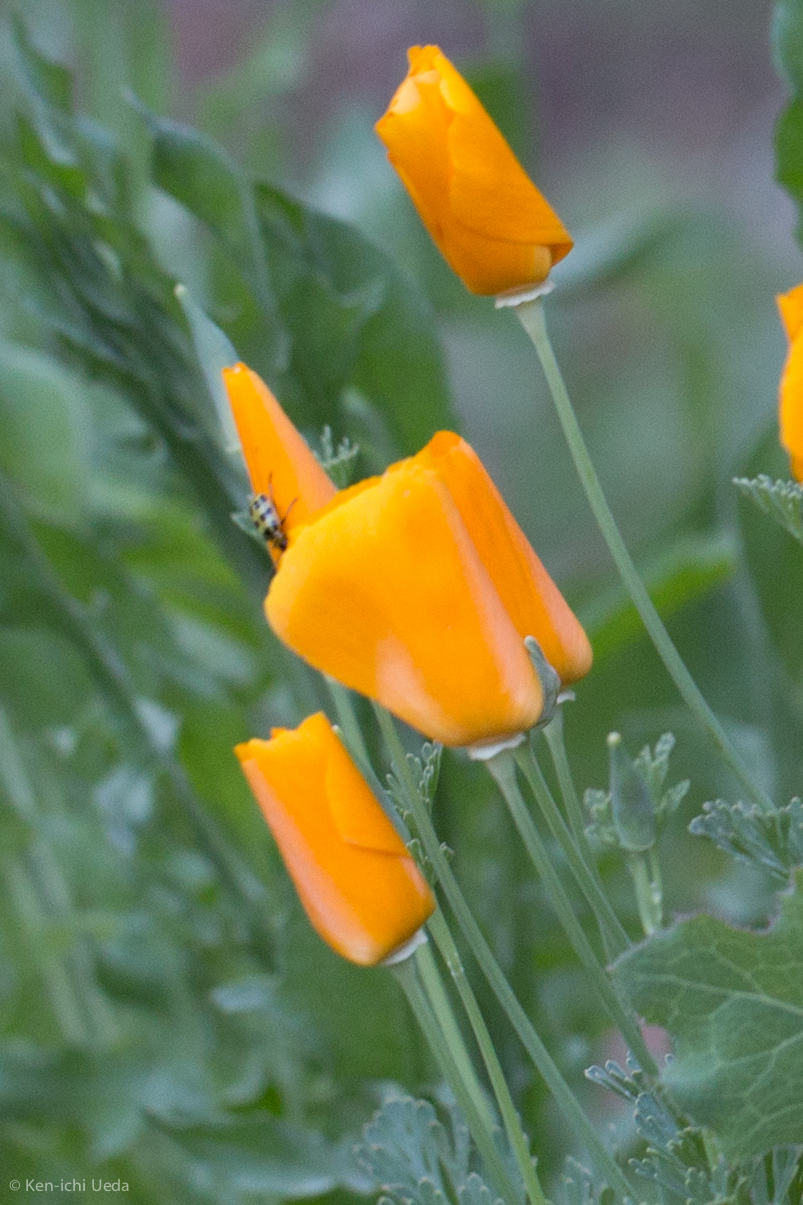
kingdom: Plantae
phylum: Tracheophyta
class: Magnoliopsida
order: Ranunculales
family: Papaveraceae
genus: Eschscholzia
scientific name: Eschscholzia californica
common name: California poppy
